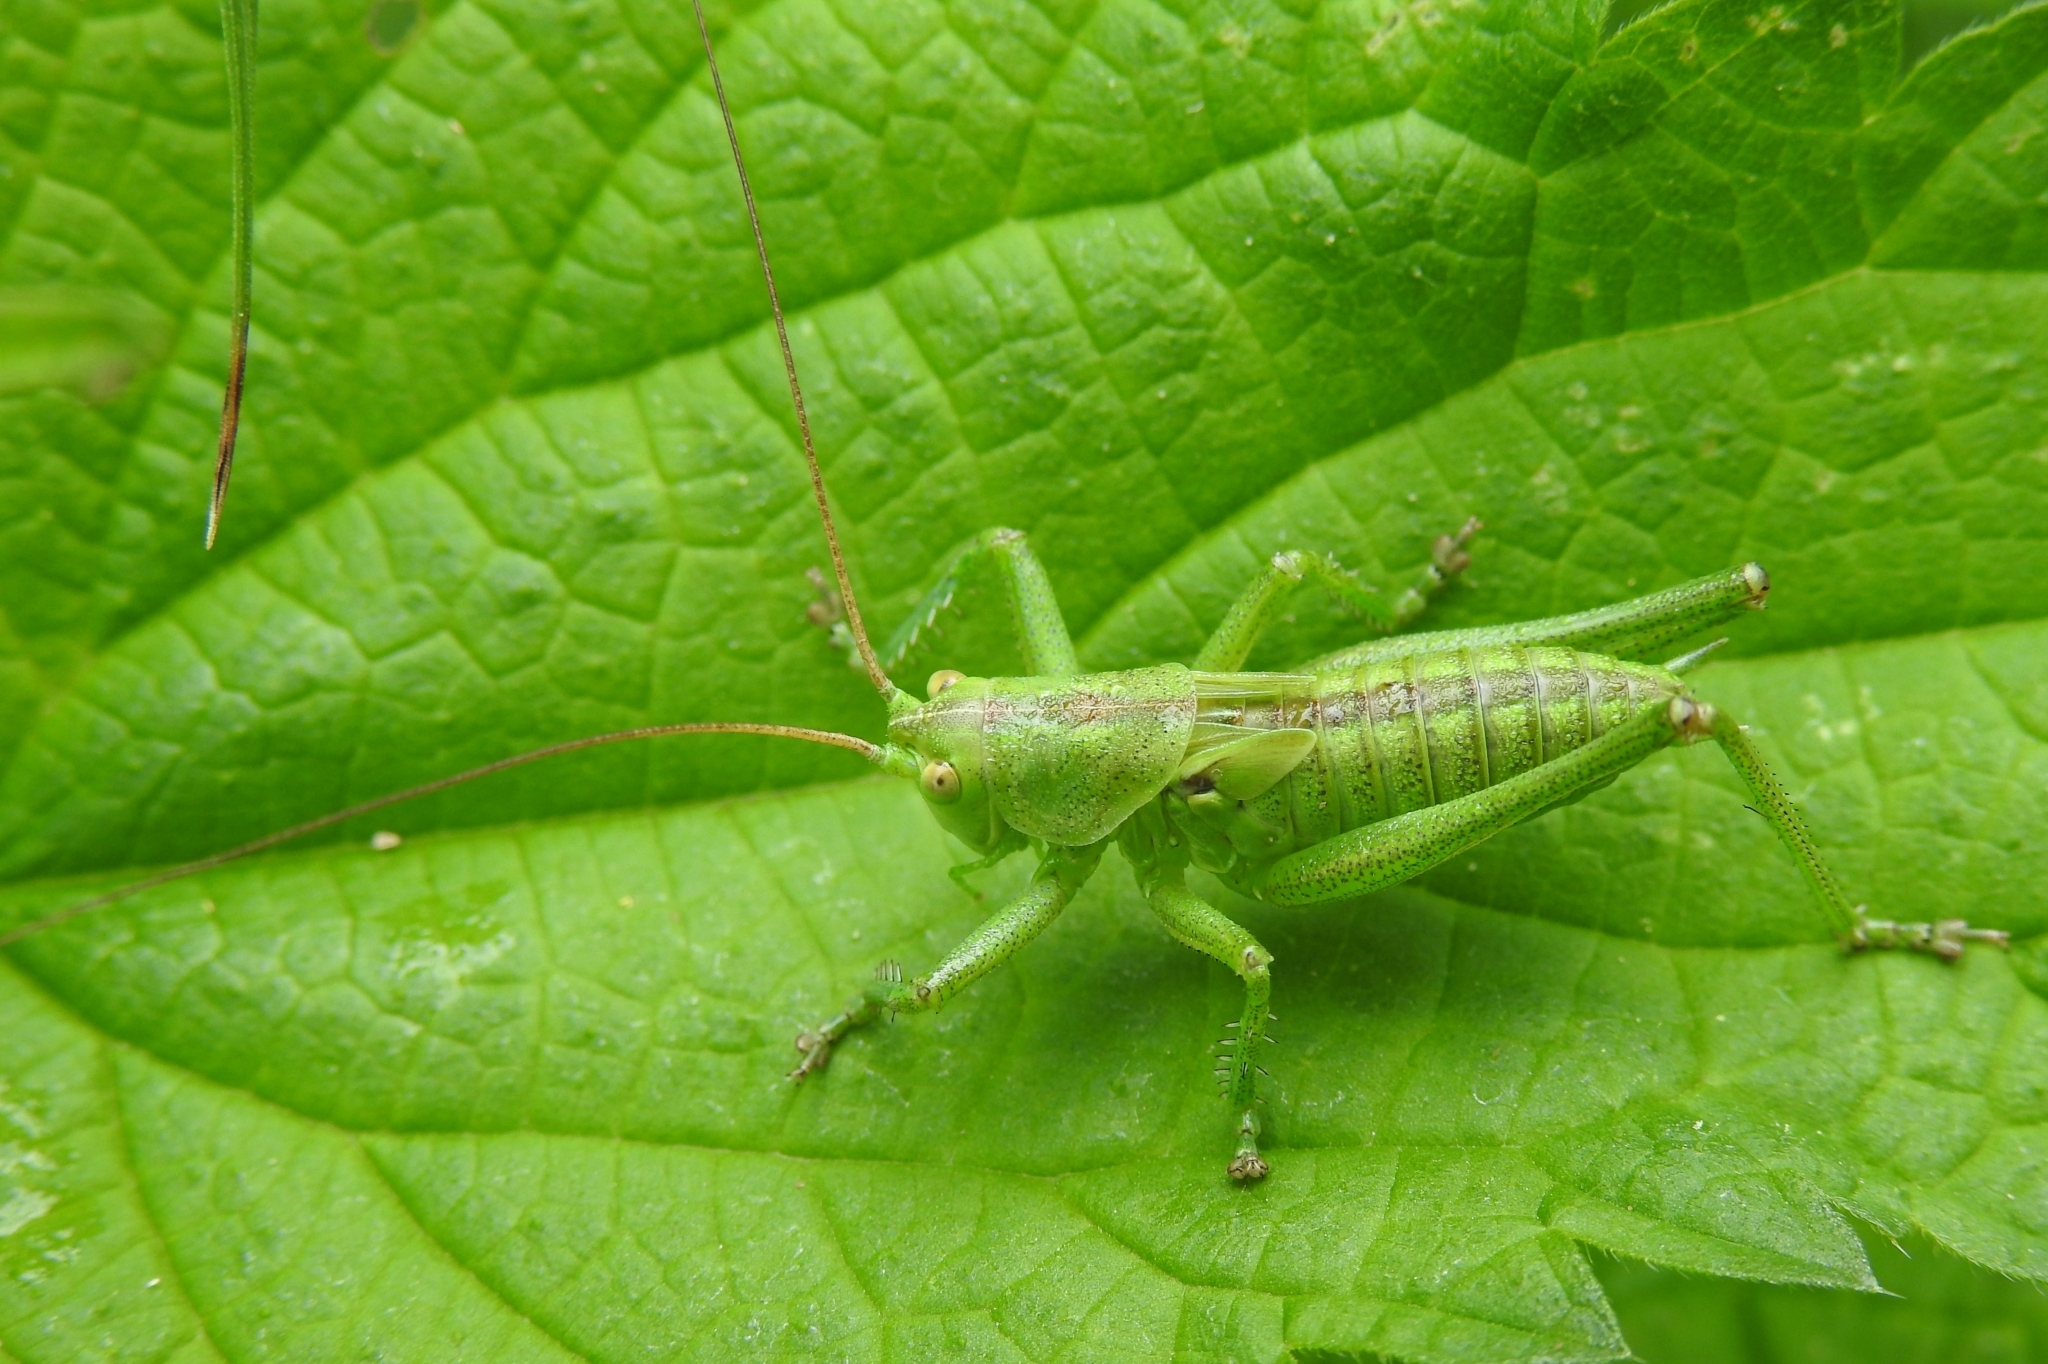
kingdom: Animalia
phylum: Arthropoda
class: Insecta
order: Orthoptera
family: Tettigoniidae
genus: Tettigonia
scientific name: Tettigonia viridissima
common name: Great green bush-cricket
